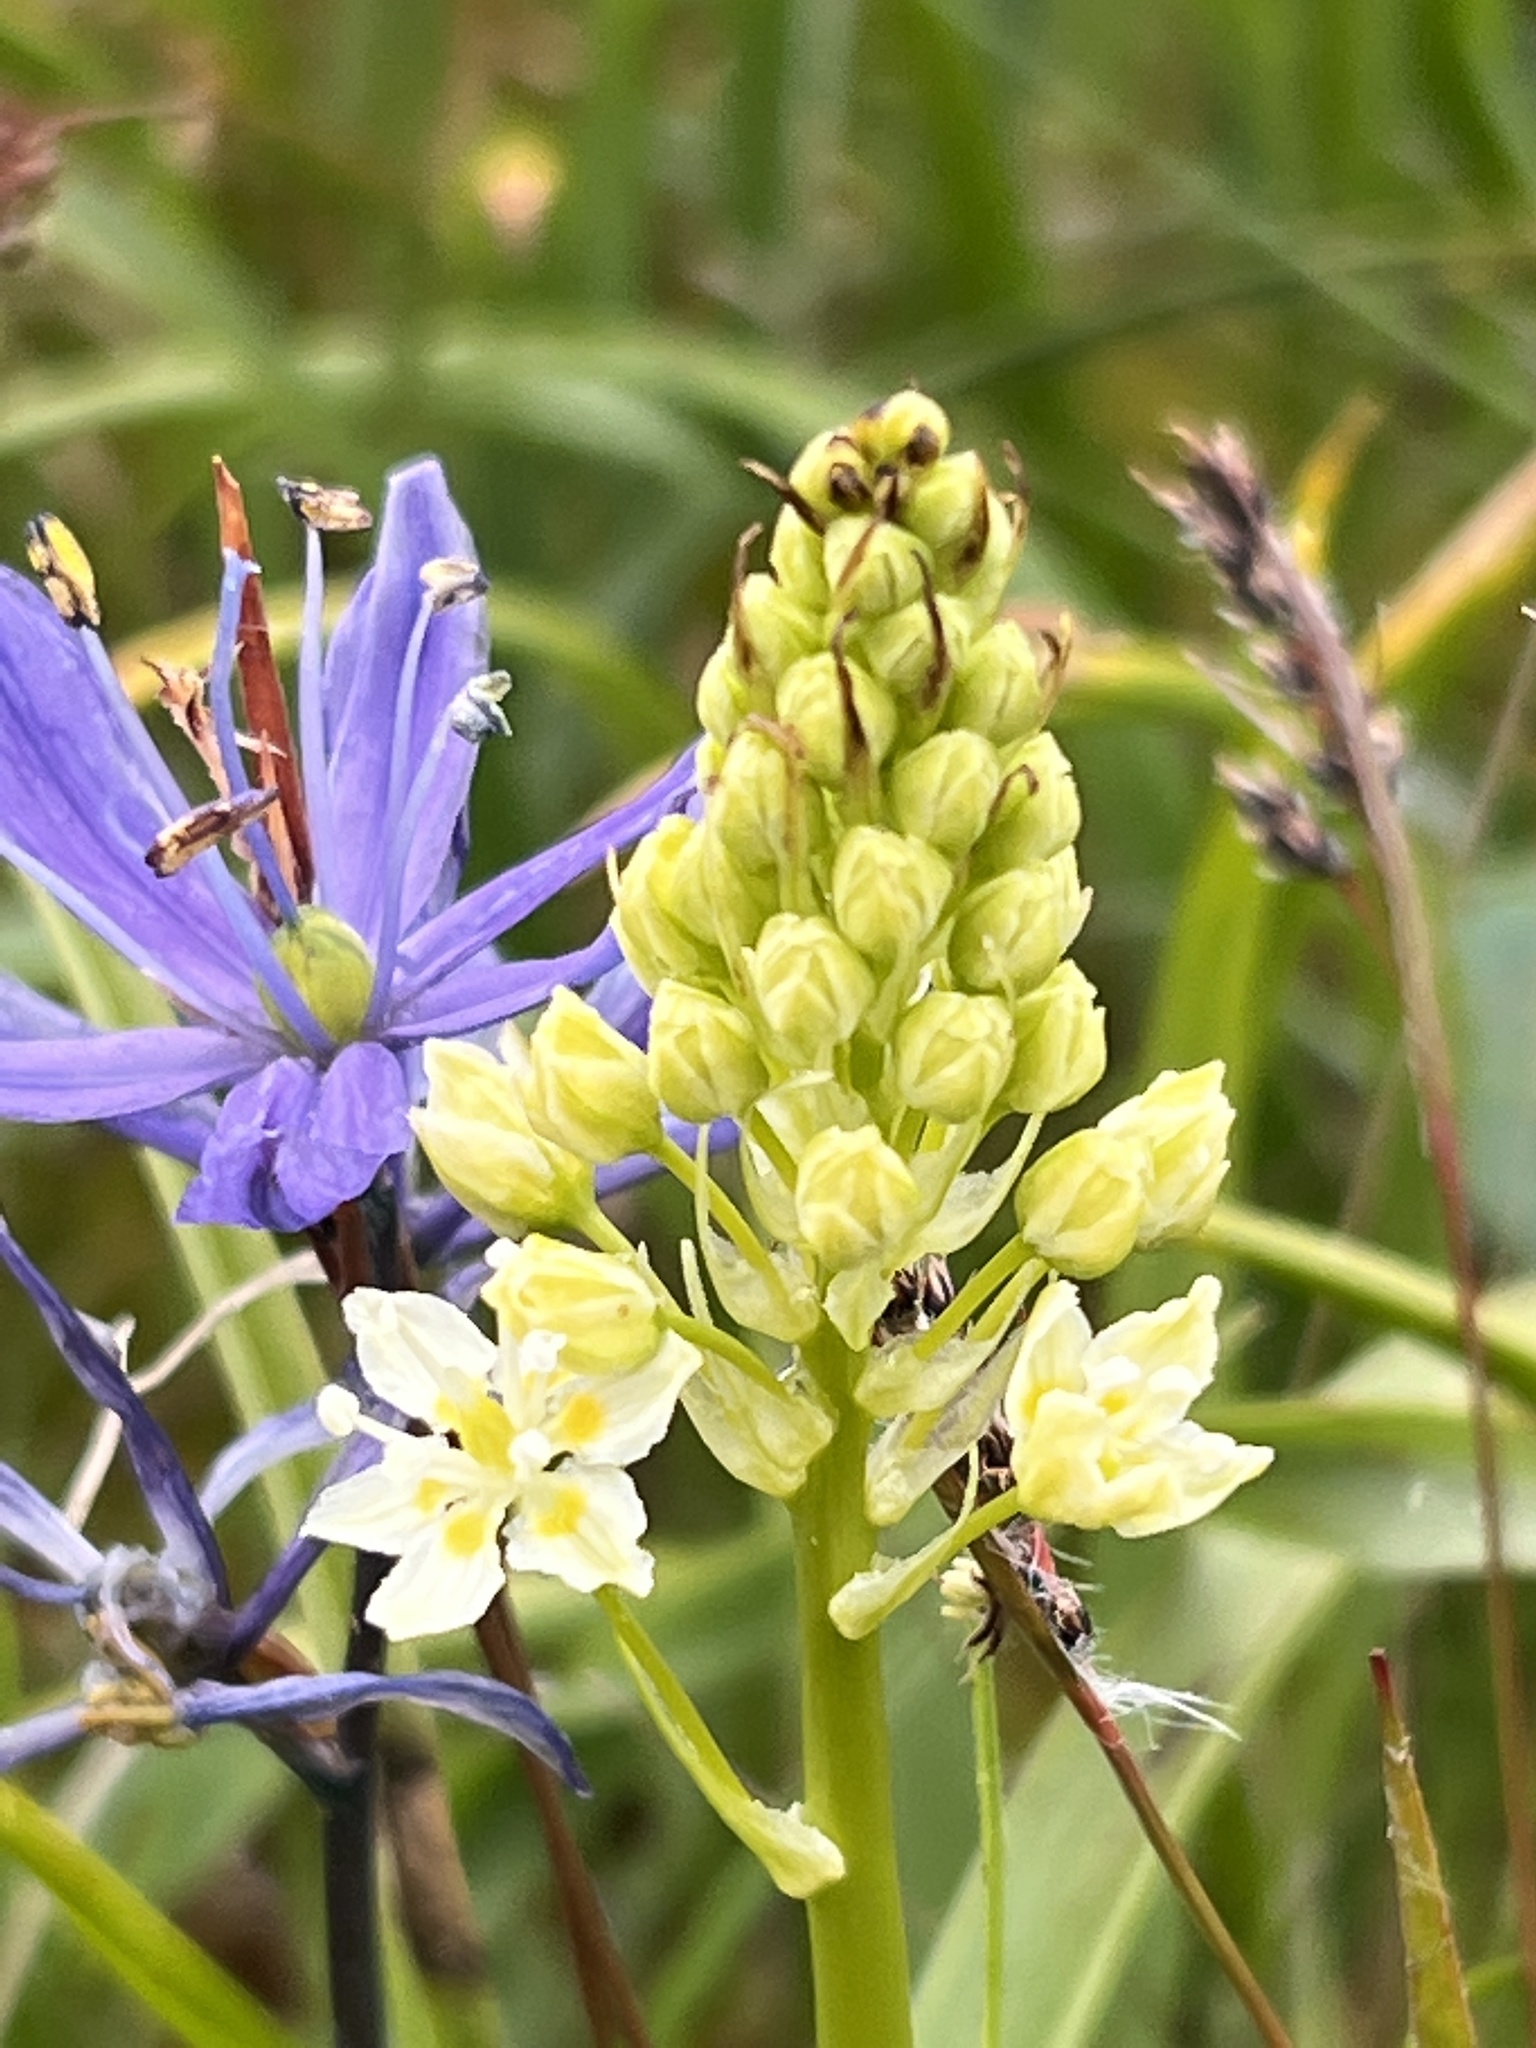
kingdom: Plantae
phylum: Tracheophyta
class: Liliopsida
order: Liliales
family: Melanthiaceae
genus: Toxicoscordion
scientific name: Toxicoscordion venenosum
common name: Meadow death camas
